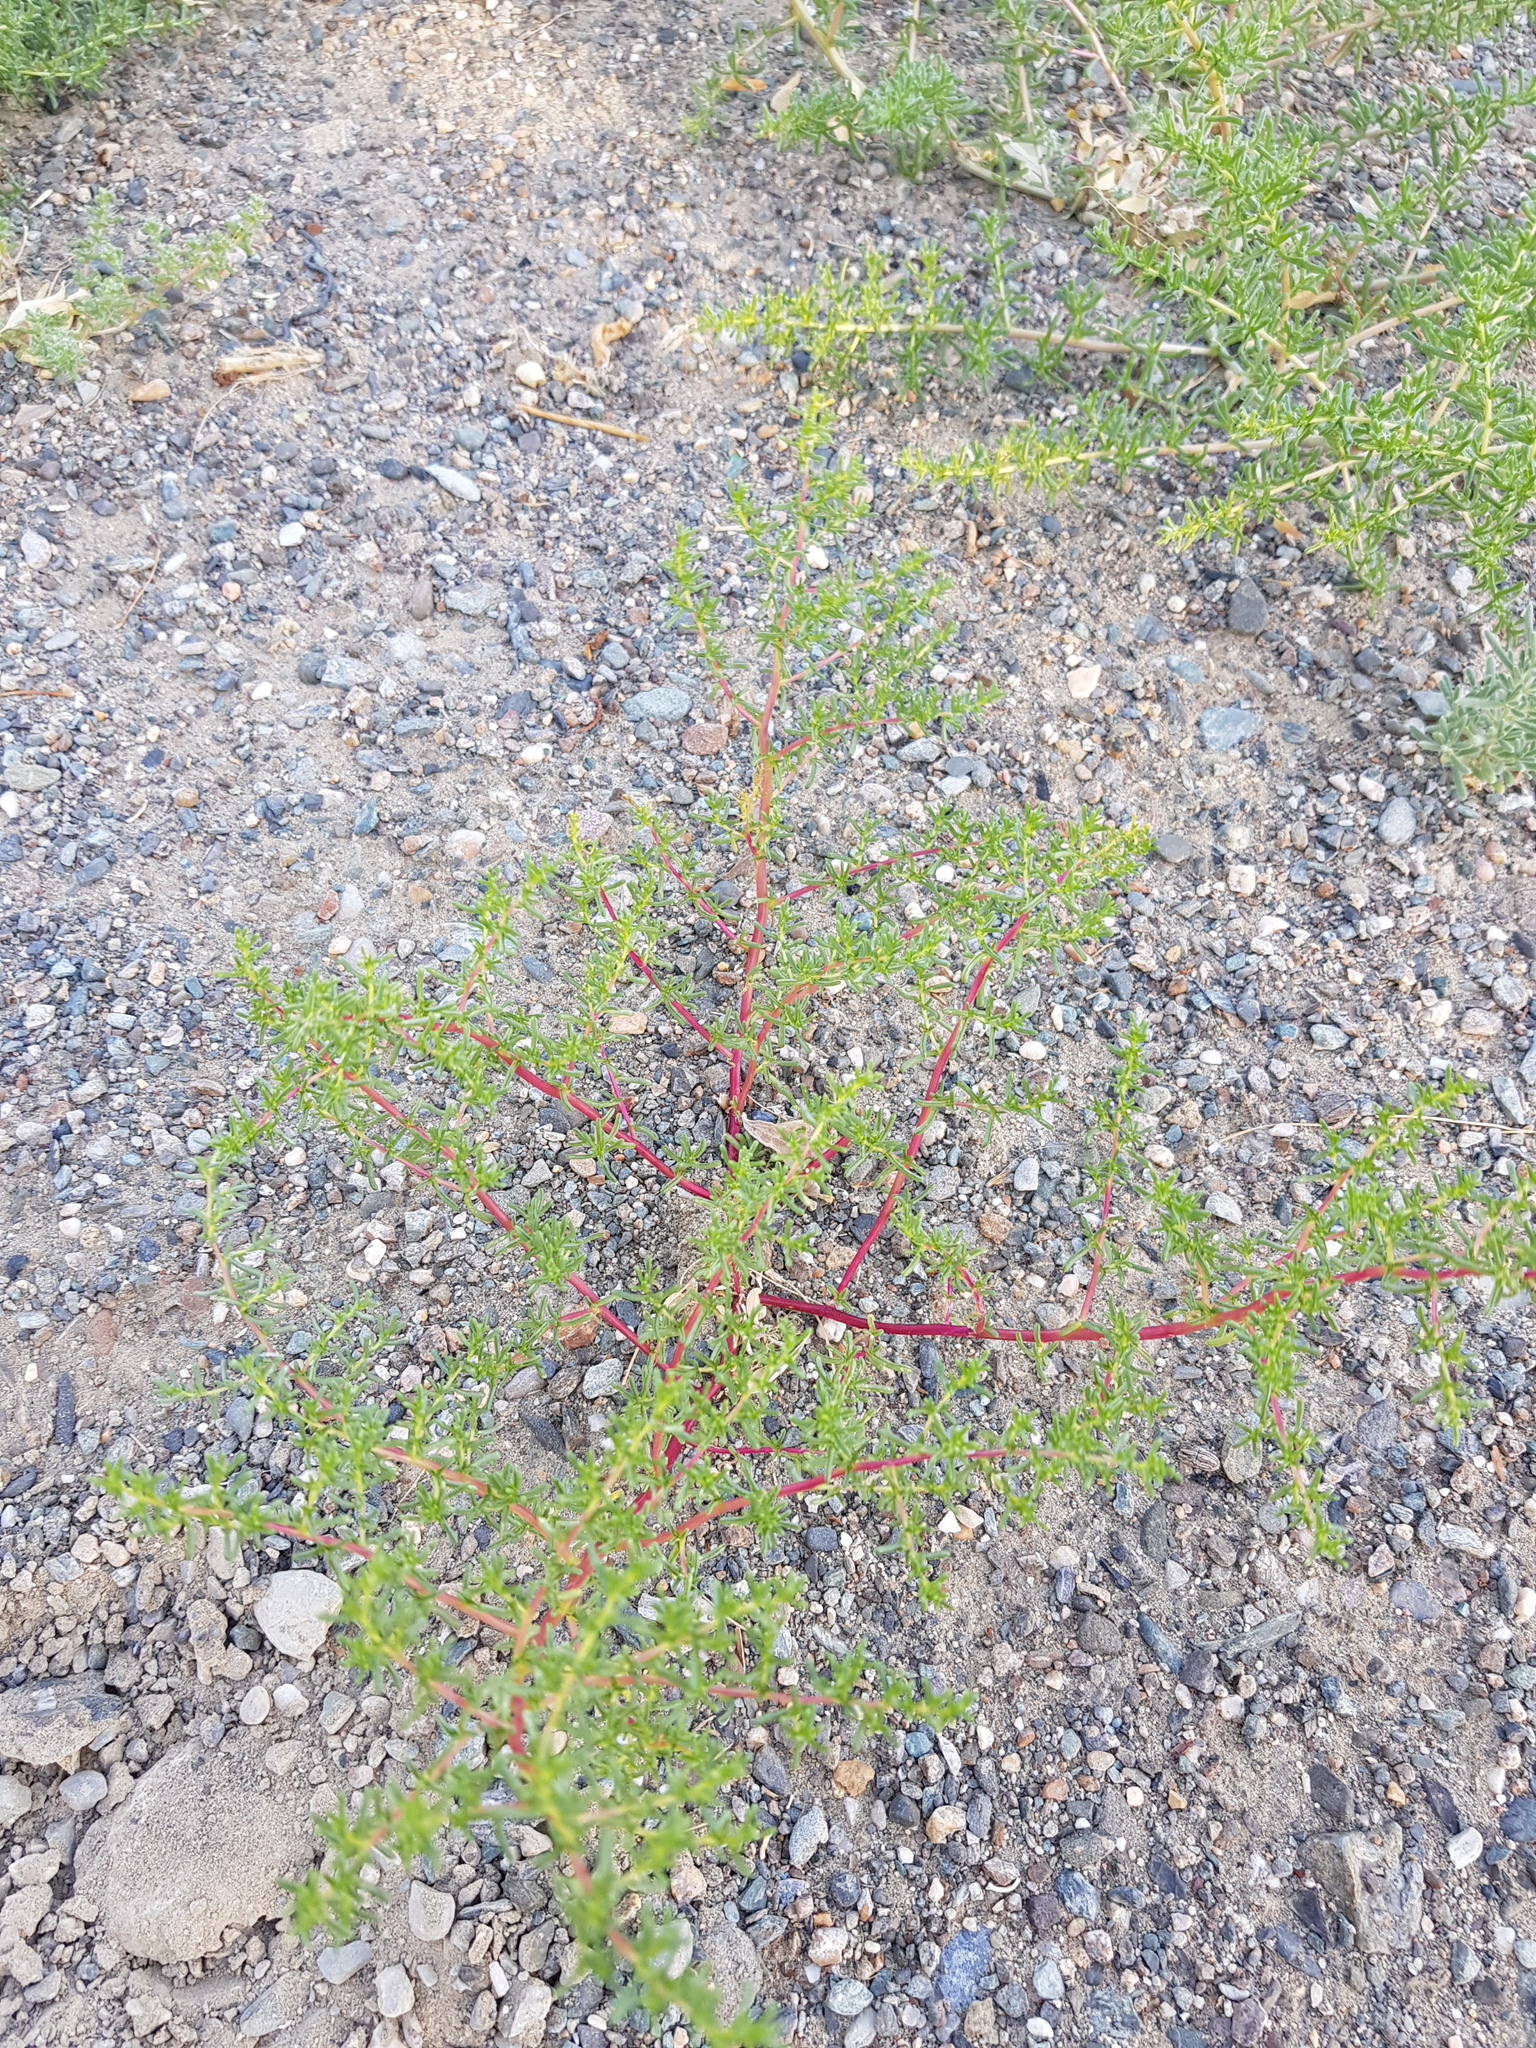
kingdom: Plantae
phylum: Tracheophyta
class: Magnoliopsida
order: Caryophyllales
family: Amaranthaceae
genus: Halogeton
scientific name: Halogeton arachnoides
